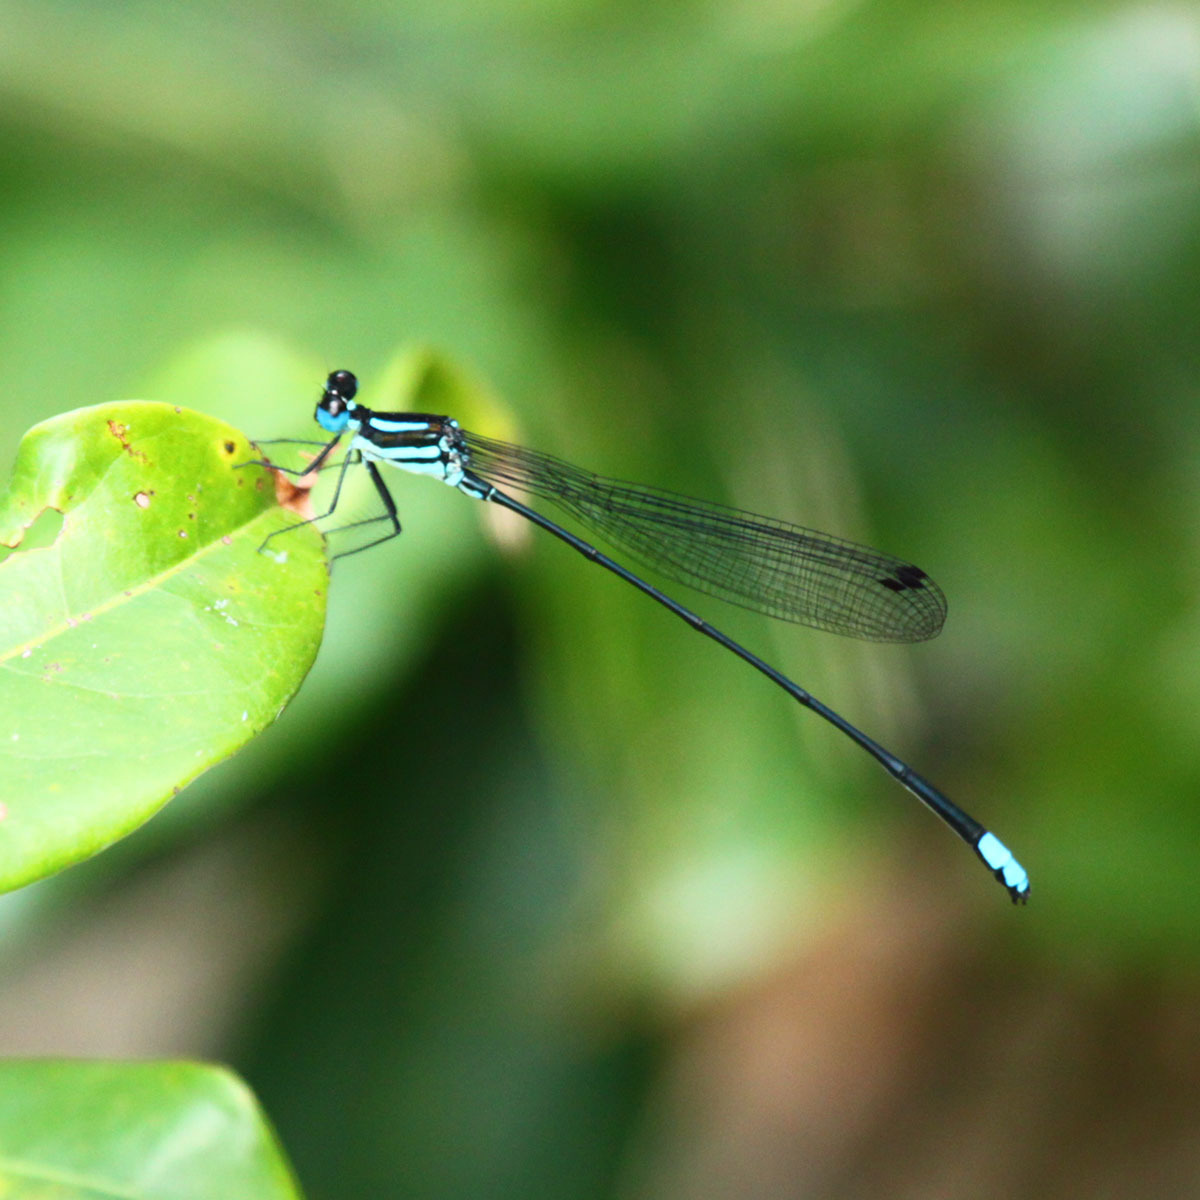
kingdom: Animalia
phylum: Arthropoda
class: Insecta
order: Odonata
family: Platycnemididae
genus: Esme
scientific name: Esme mudiensis
